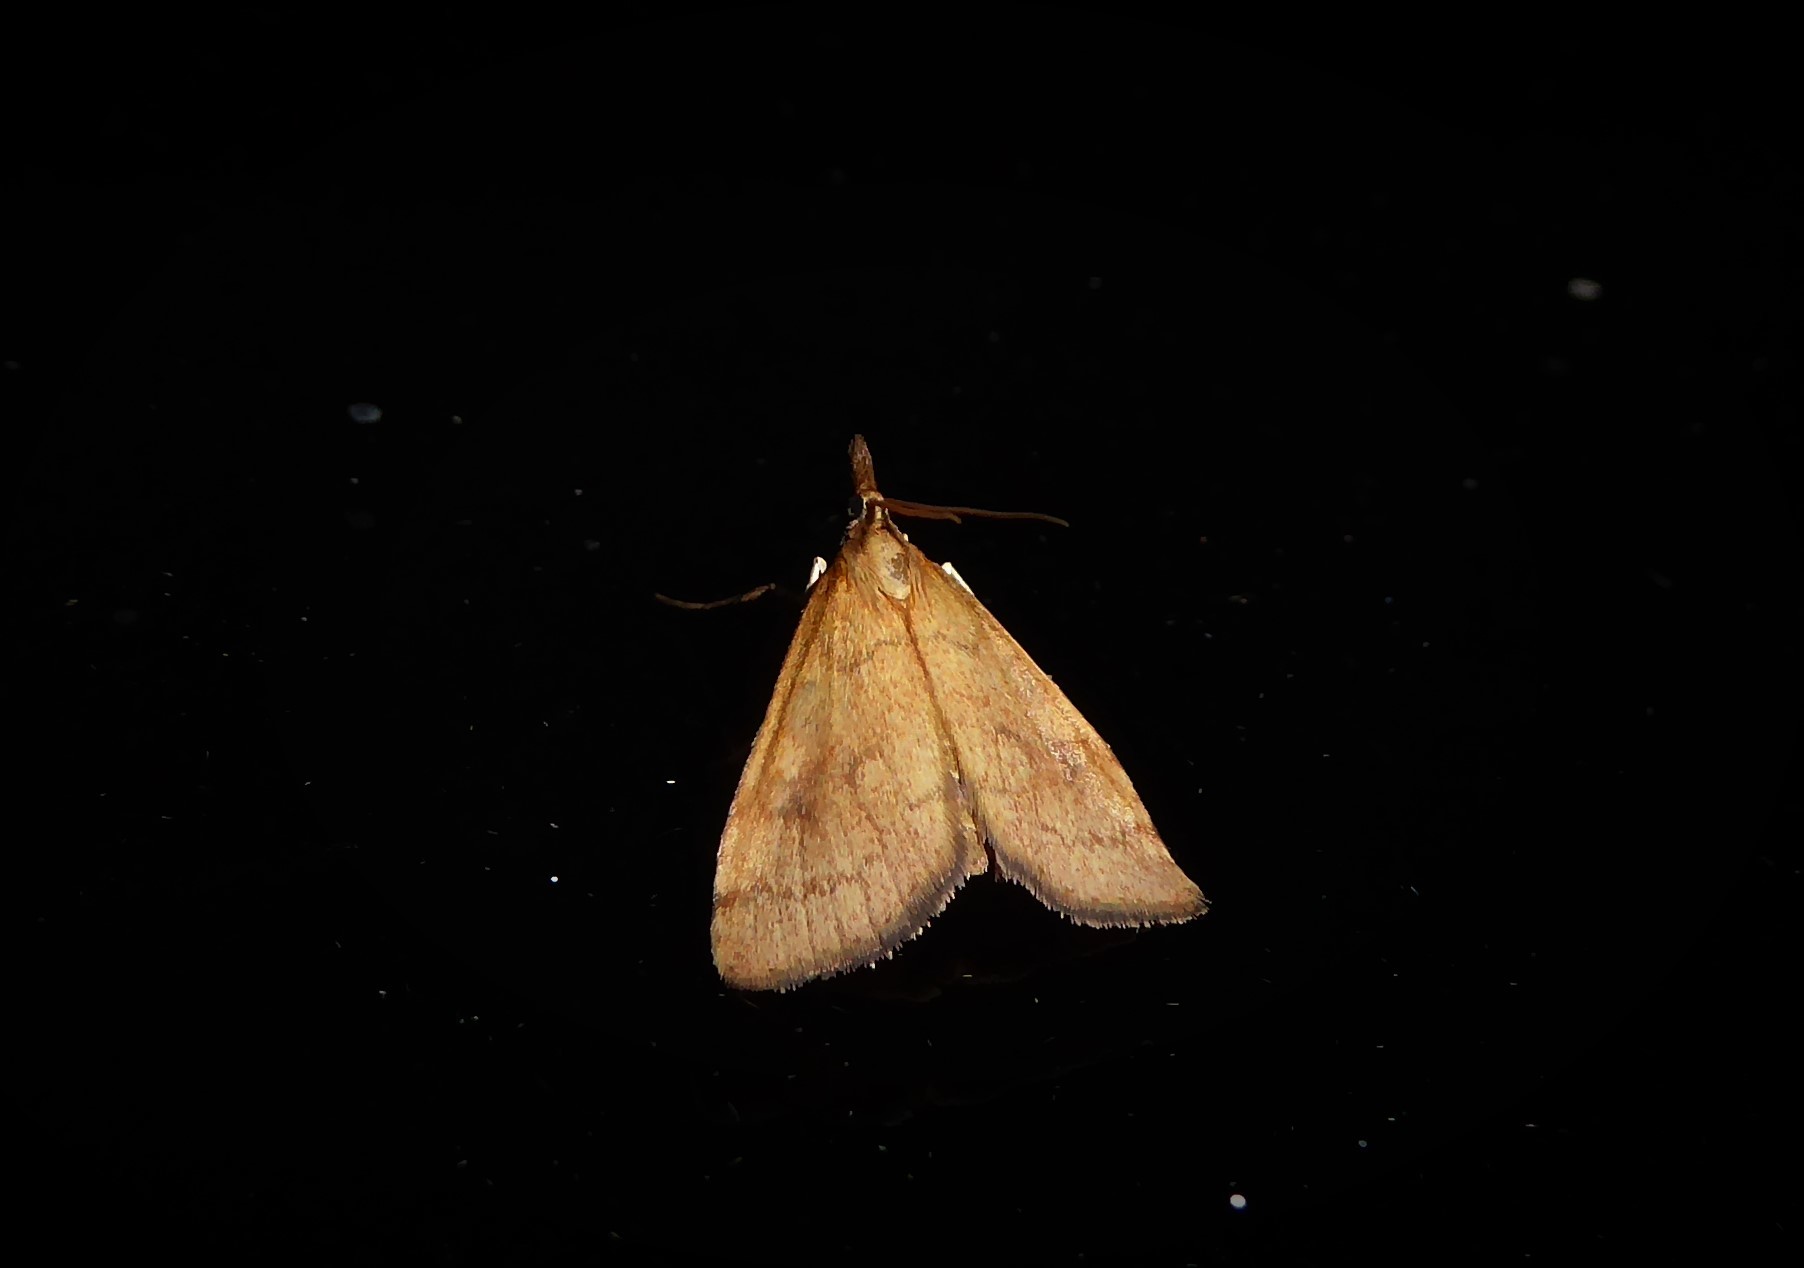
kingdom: Animalia
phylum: Arthropoda
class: Insecta
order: Lepidoptera
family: Crambidae
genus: Udea
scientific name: Udea Mnesictena flavidalis
